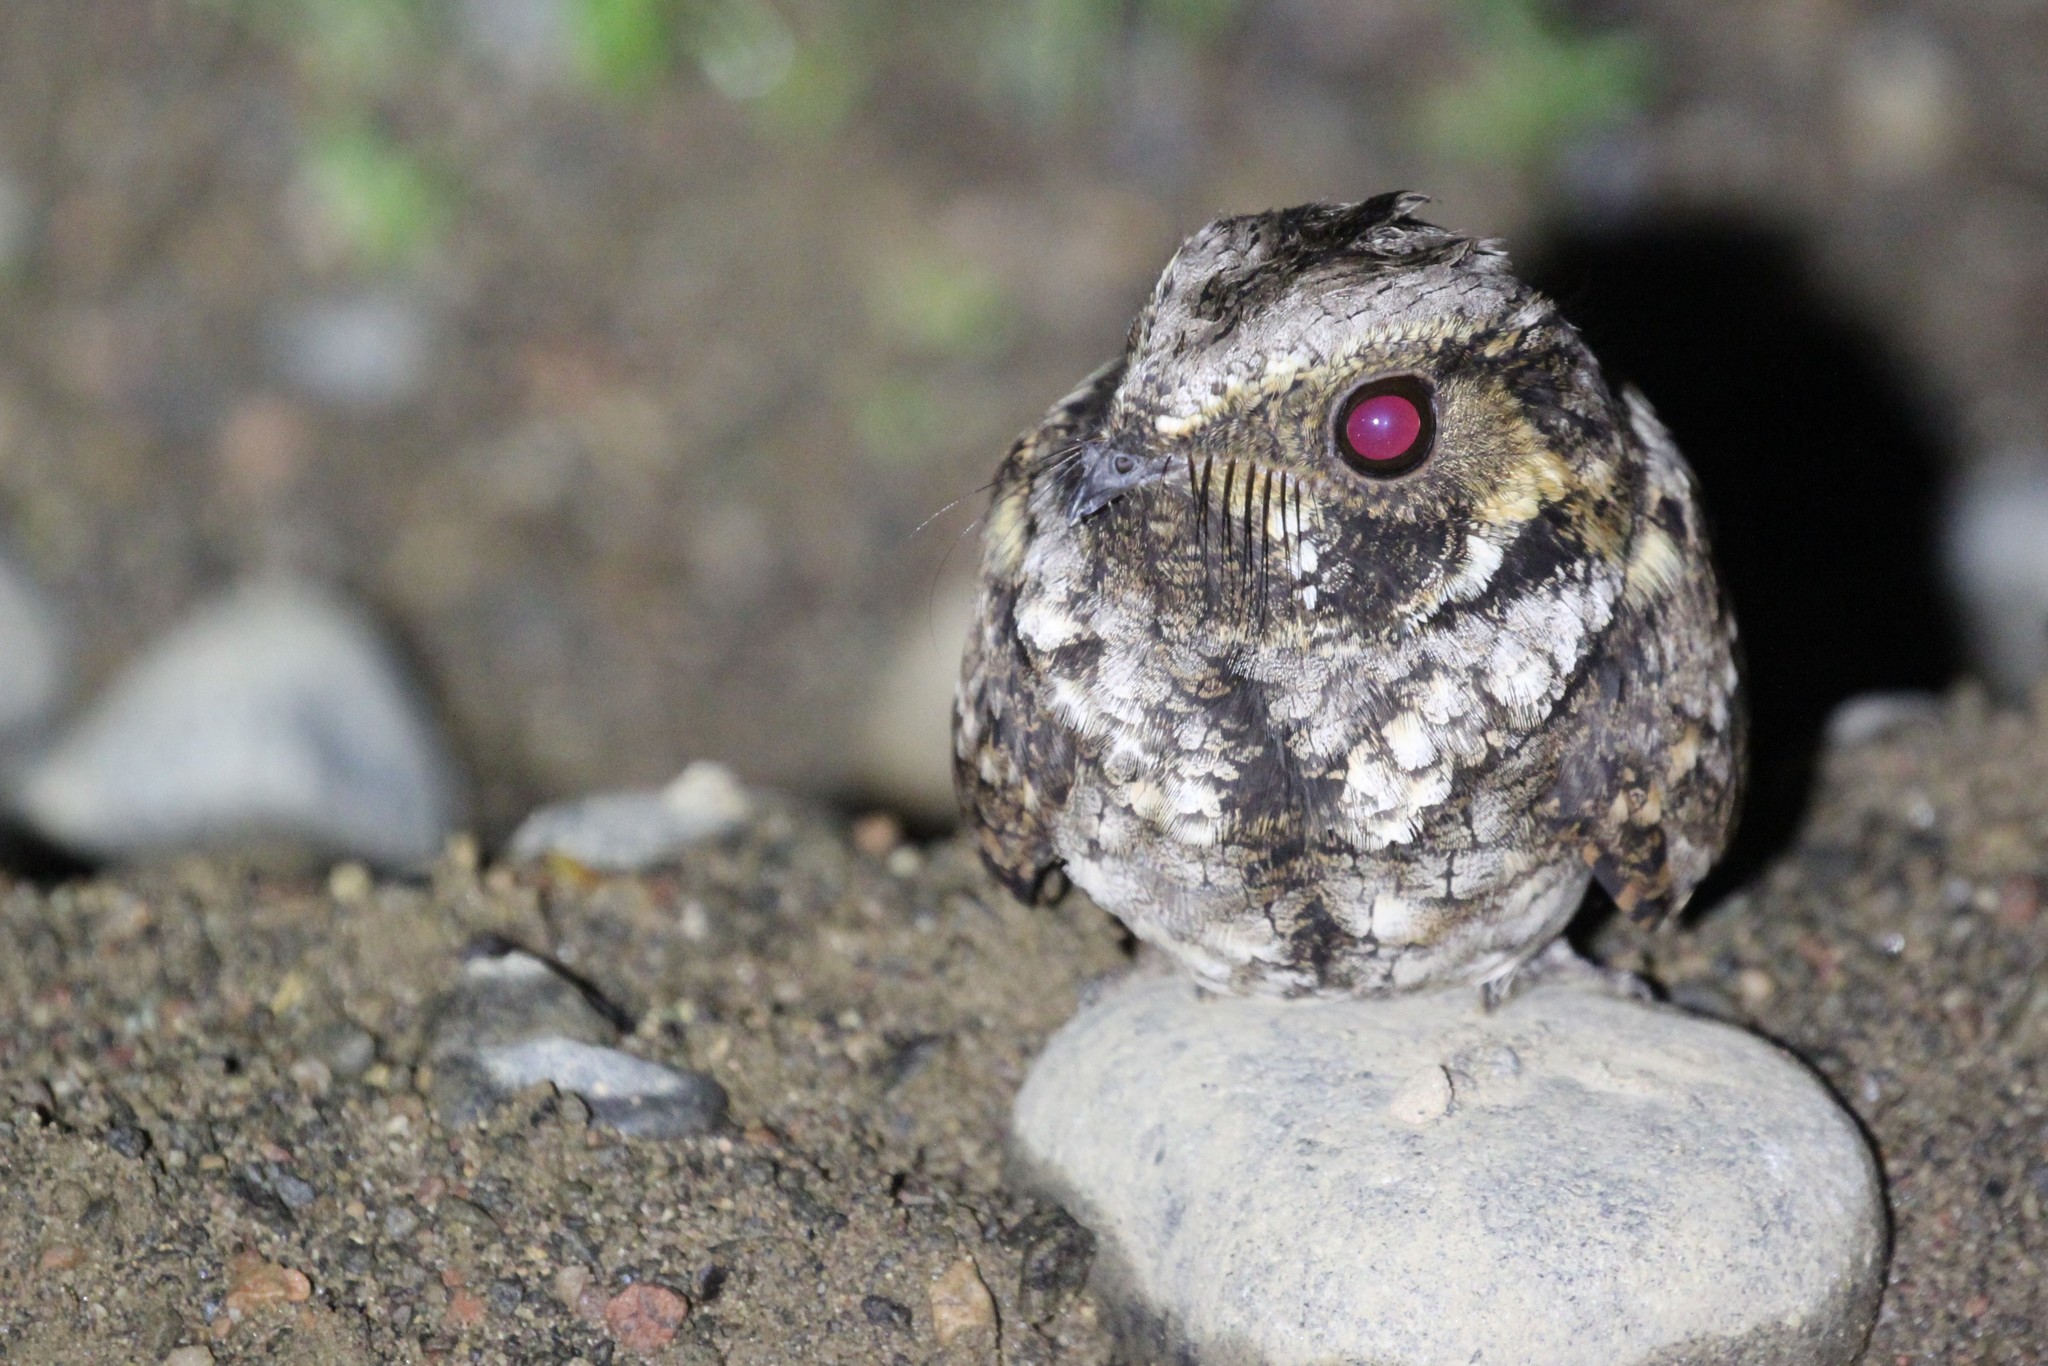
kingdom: Animalia
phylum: Chordata
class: Aves
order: Caprimulgiformes
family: Caprimulgidae
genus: Antrostomus
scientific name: Antrostomus vociferus
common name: Eastern whip-poor-will
